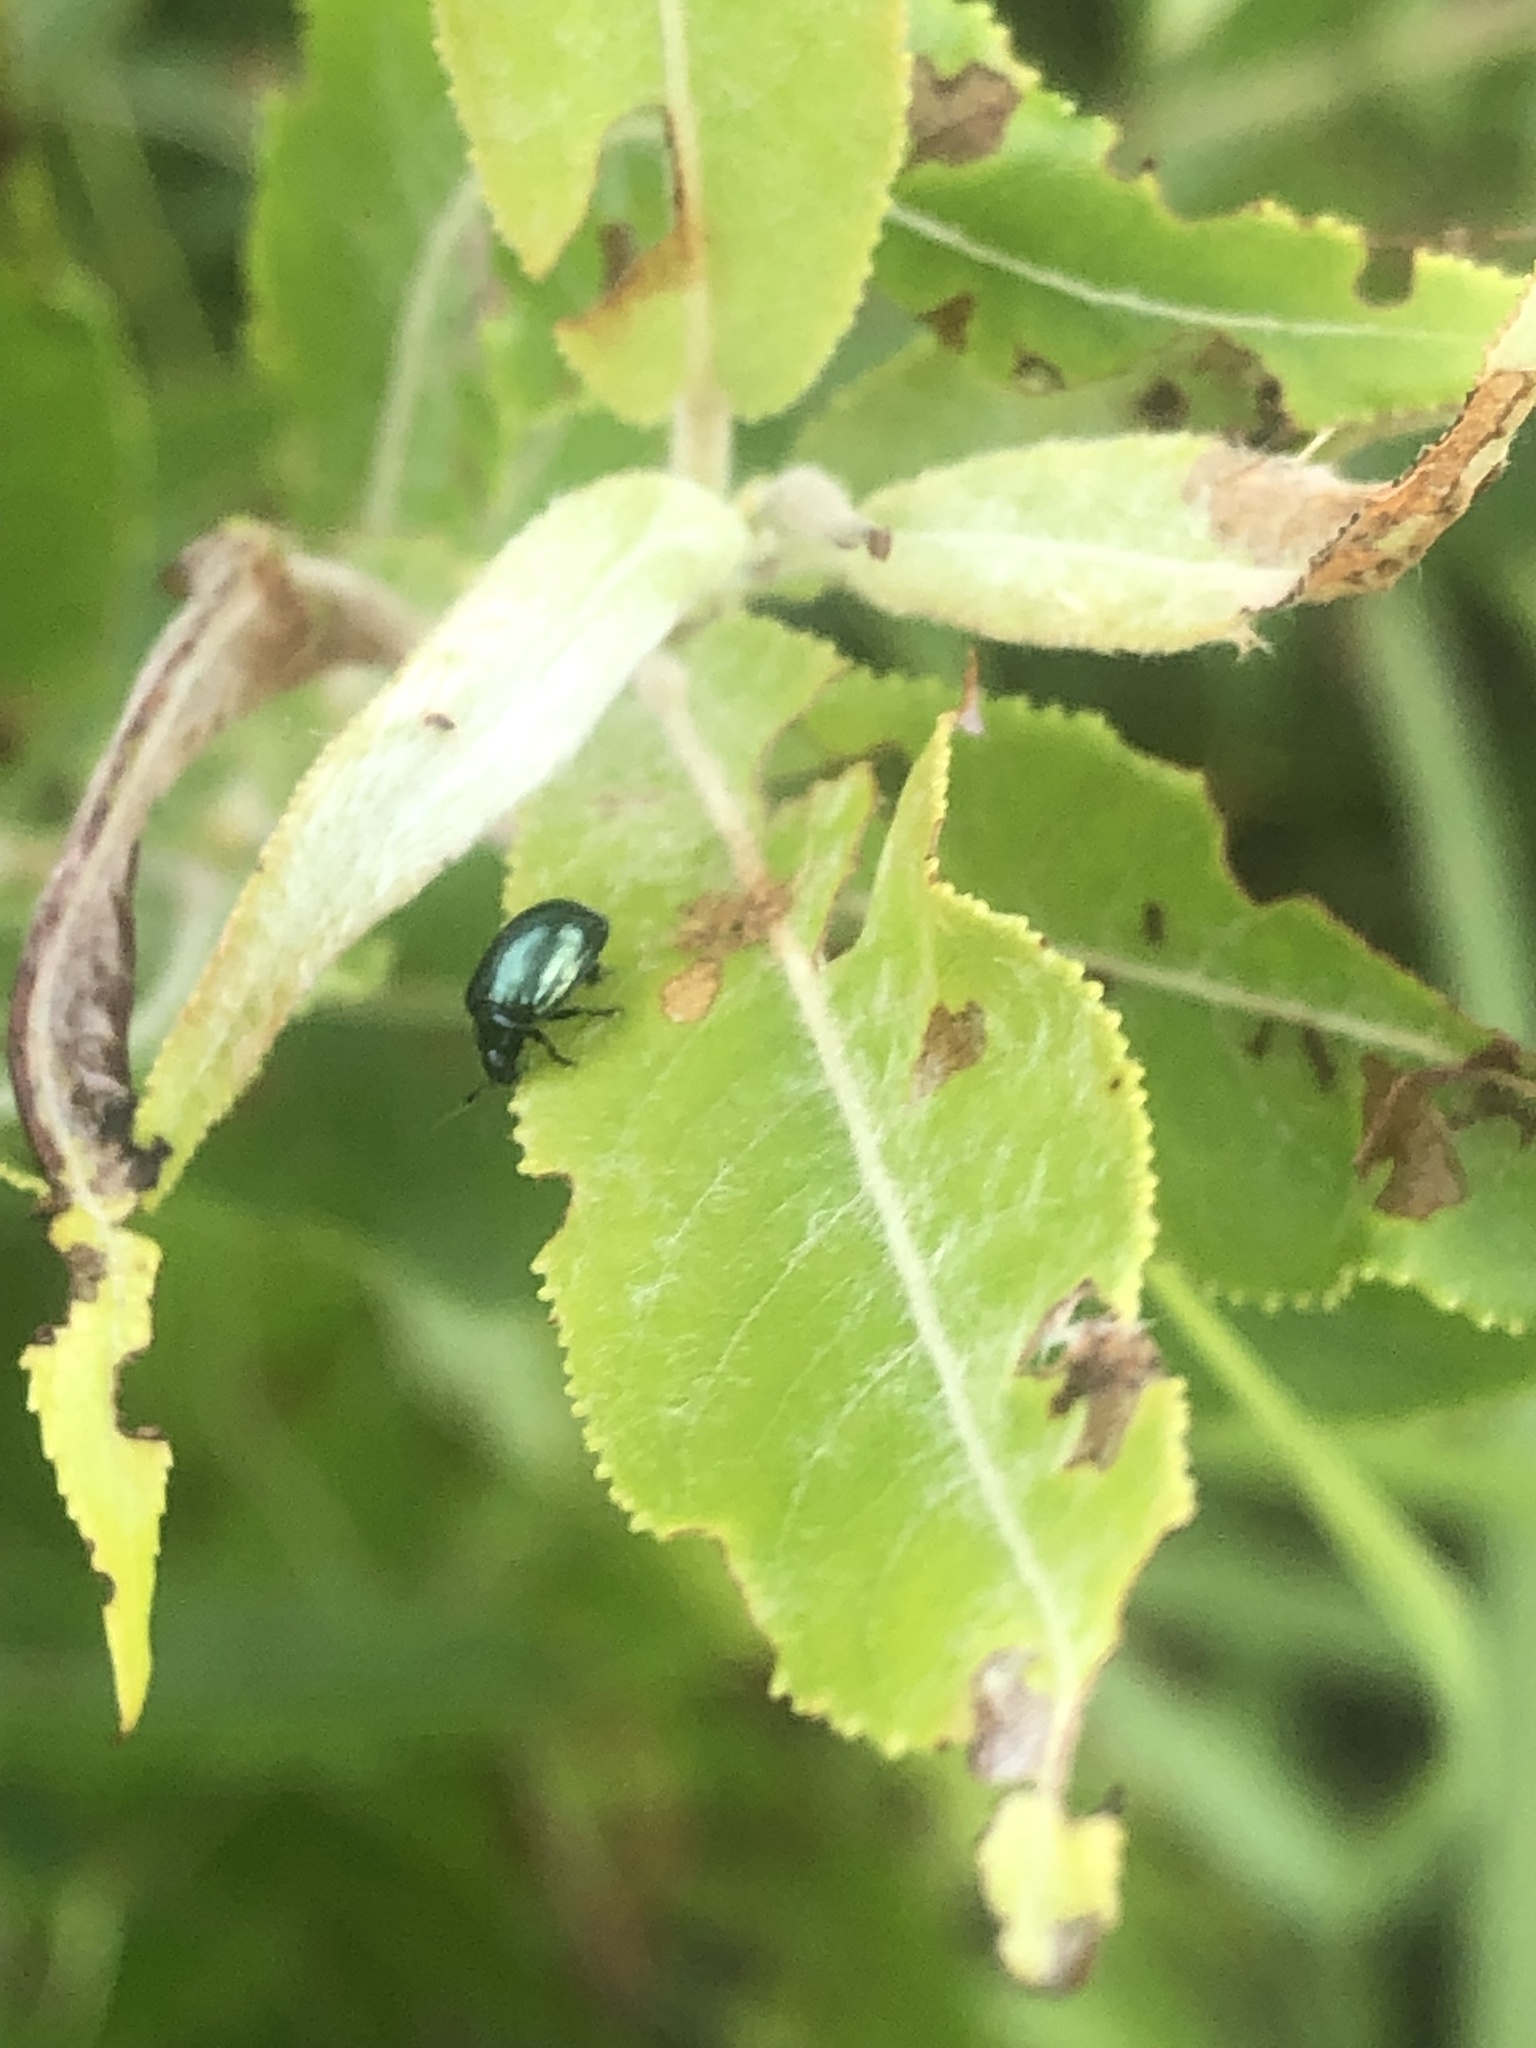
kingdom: Animalia
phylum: Arthropoda
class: Insecta
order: Coleoptera
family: Chrysomelidae
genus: Plagiodera
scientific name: Plagiodera versicolora
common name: Imported willow leaf beetle
